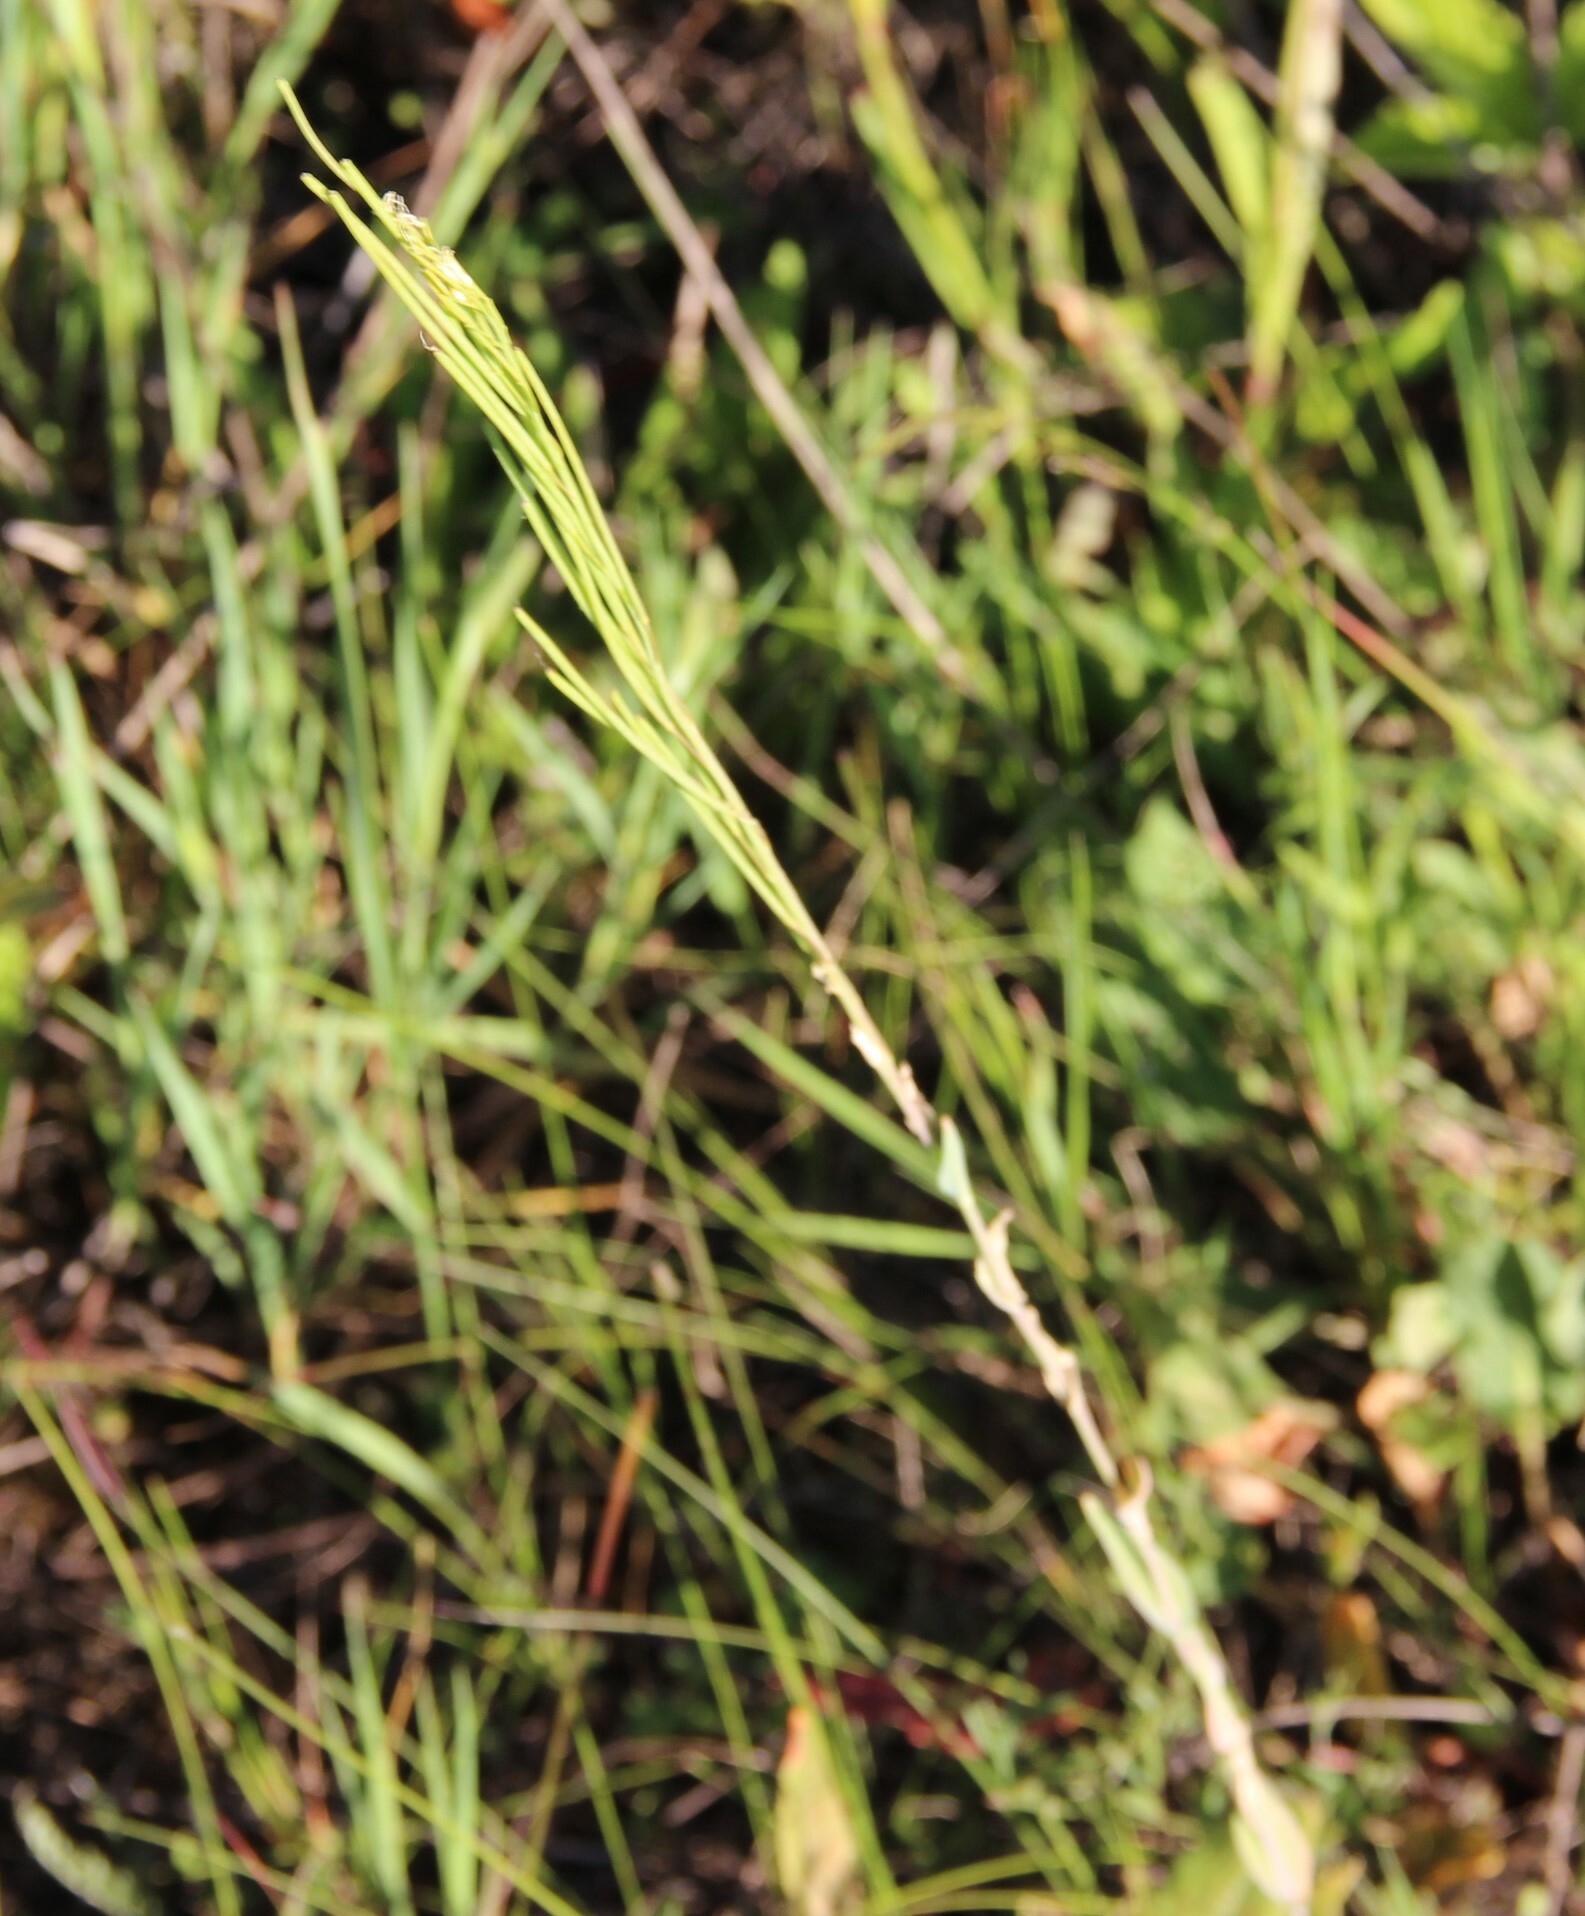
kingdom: Plantae
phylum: Tracheophyta
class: Magnoliopsida
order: Brassicales
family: Brassicaceae
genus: Turritis
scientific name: Turritis glabra
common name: Tower rockcress
